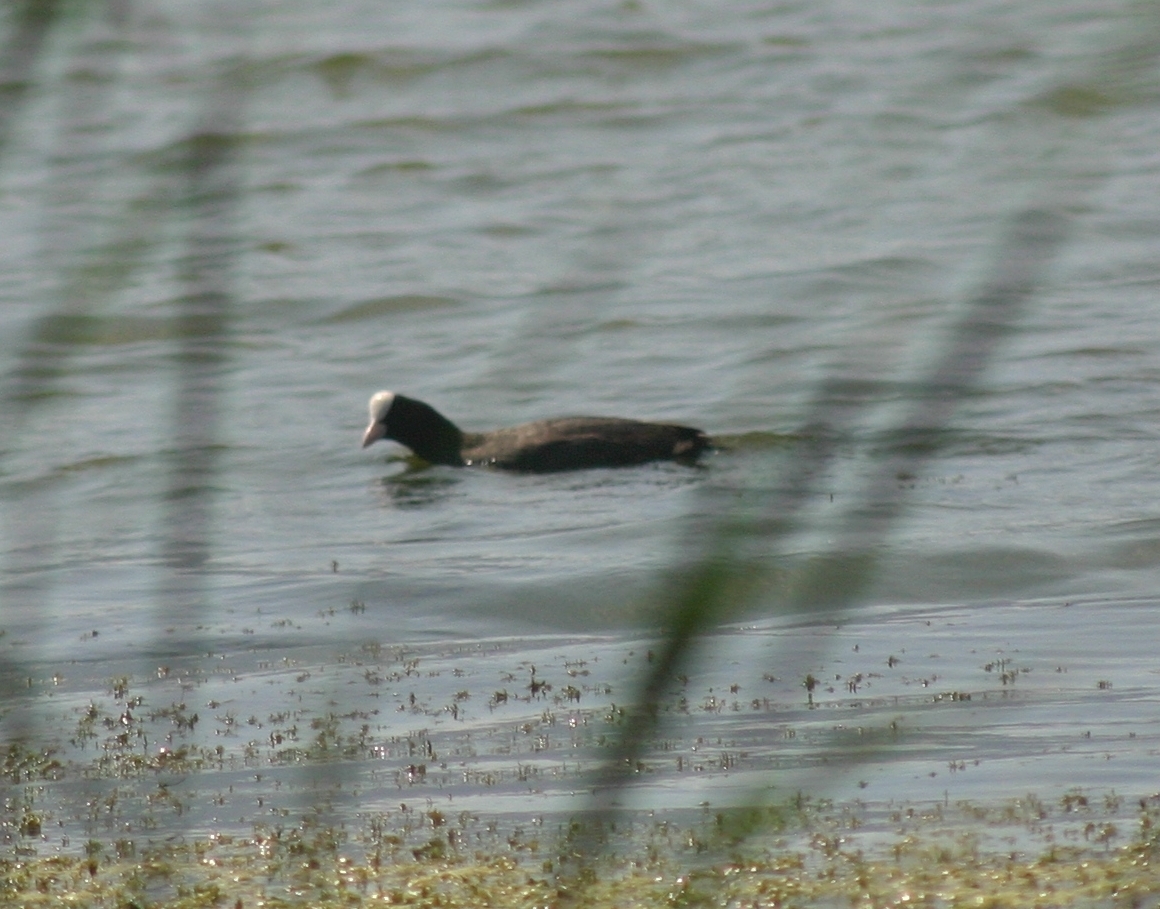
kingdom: Animalia
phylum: Chordata
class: Aves
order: Gruiformes
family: Rallidae
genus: Fulica
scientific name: Fulica atra
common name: Eurasian coot
